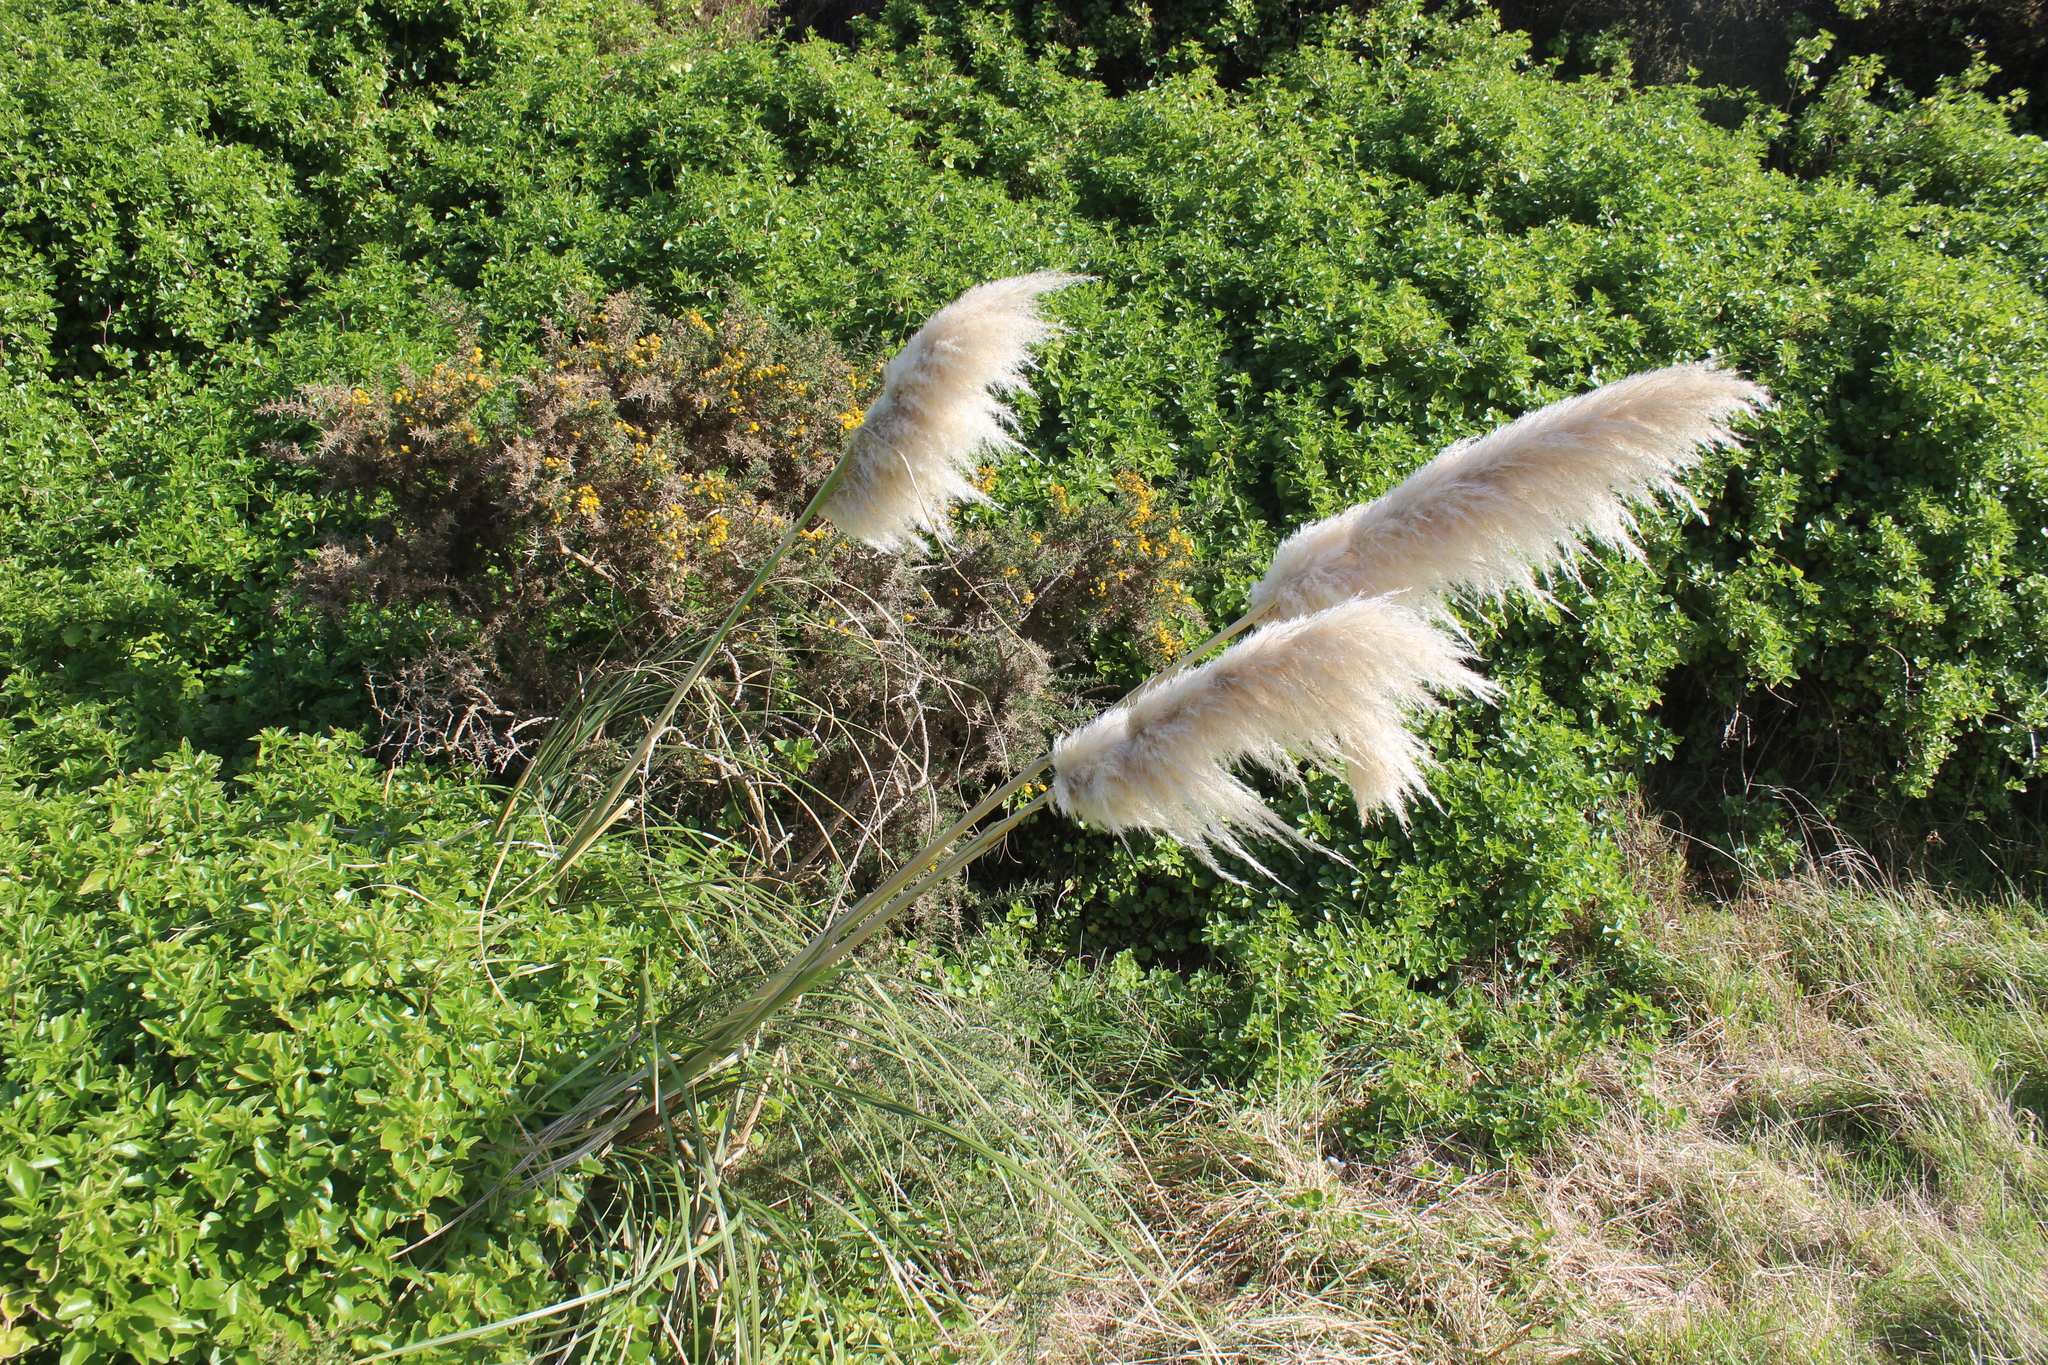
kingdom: Plantae
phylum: Tracheophyta
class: Liliopsida
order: Poales
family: Poaceae
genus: Cortaderia
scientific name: Cortaderia selloana
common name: Uruguayan pampas grass
